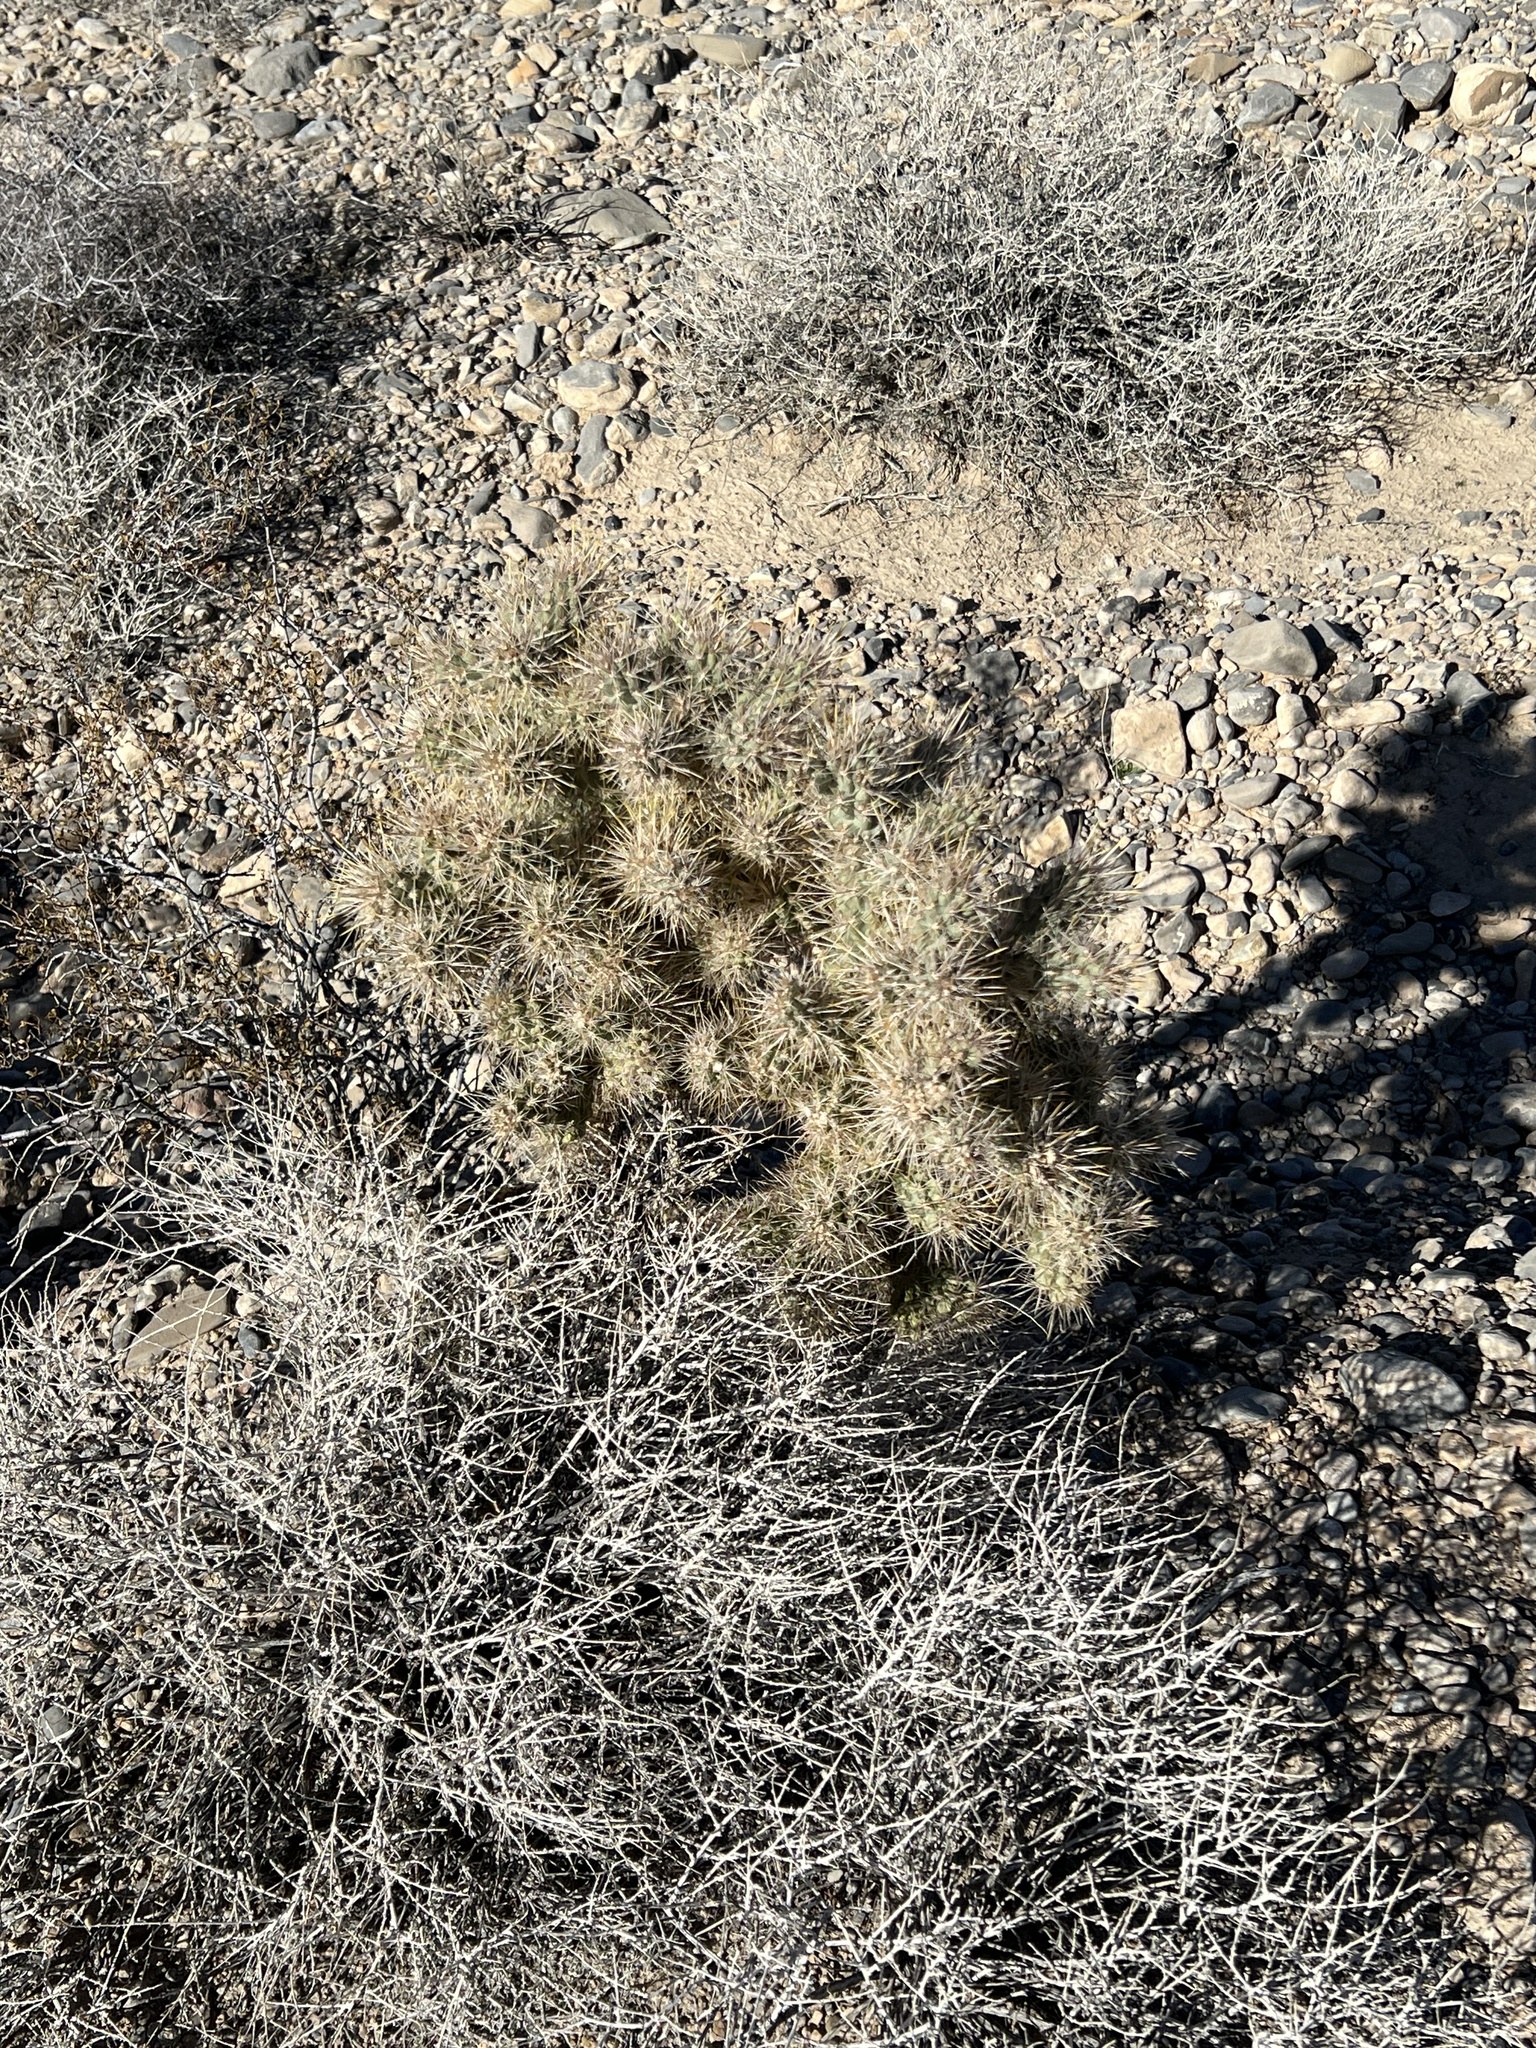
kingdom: Plantae
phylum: Tracheophyta
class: Magnoliopsida
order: Caryophyllales
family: Cactaceae
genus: Cylindropuntia
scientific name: Cylindropuntia echinocarpa
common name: Ground cholla
